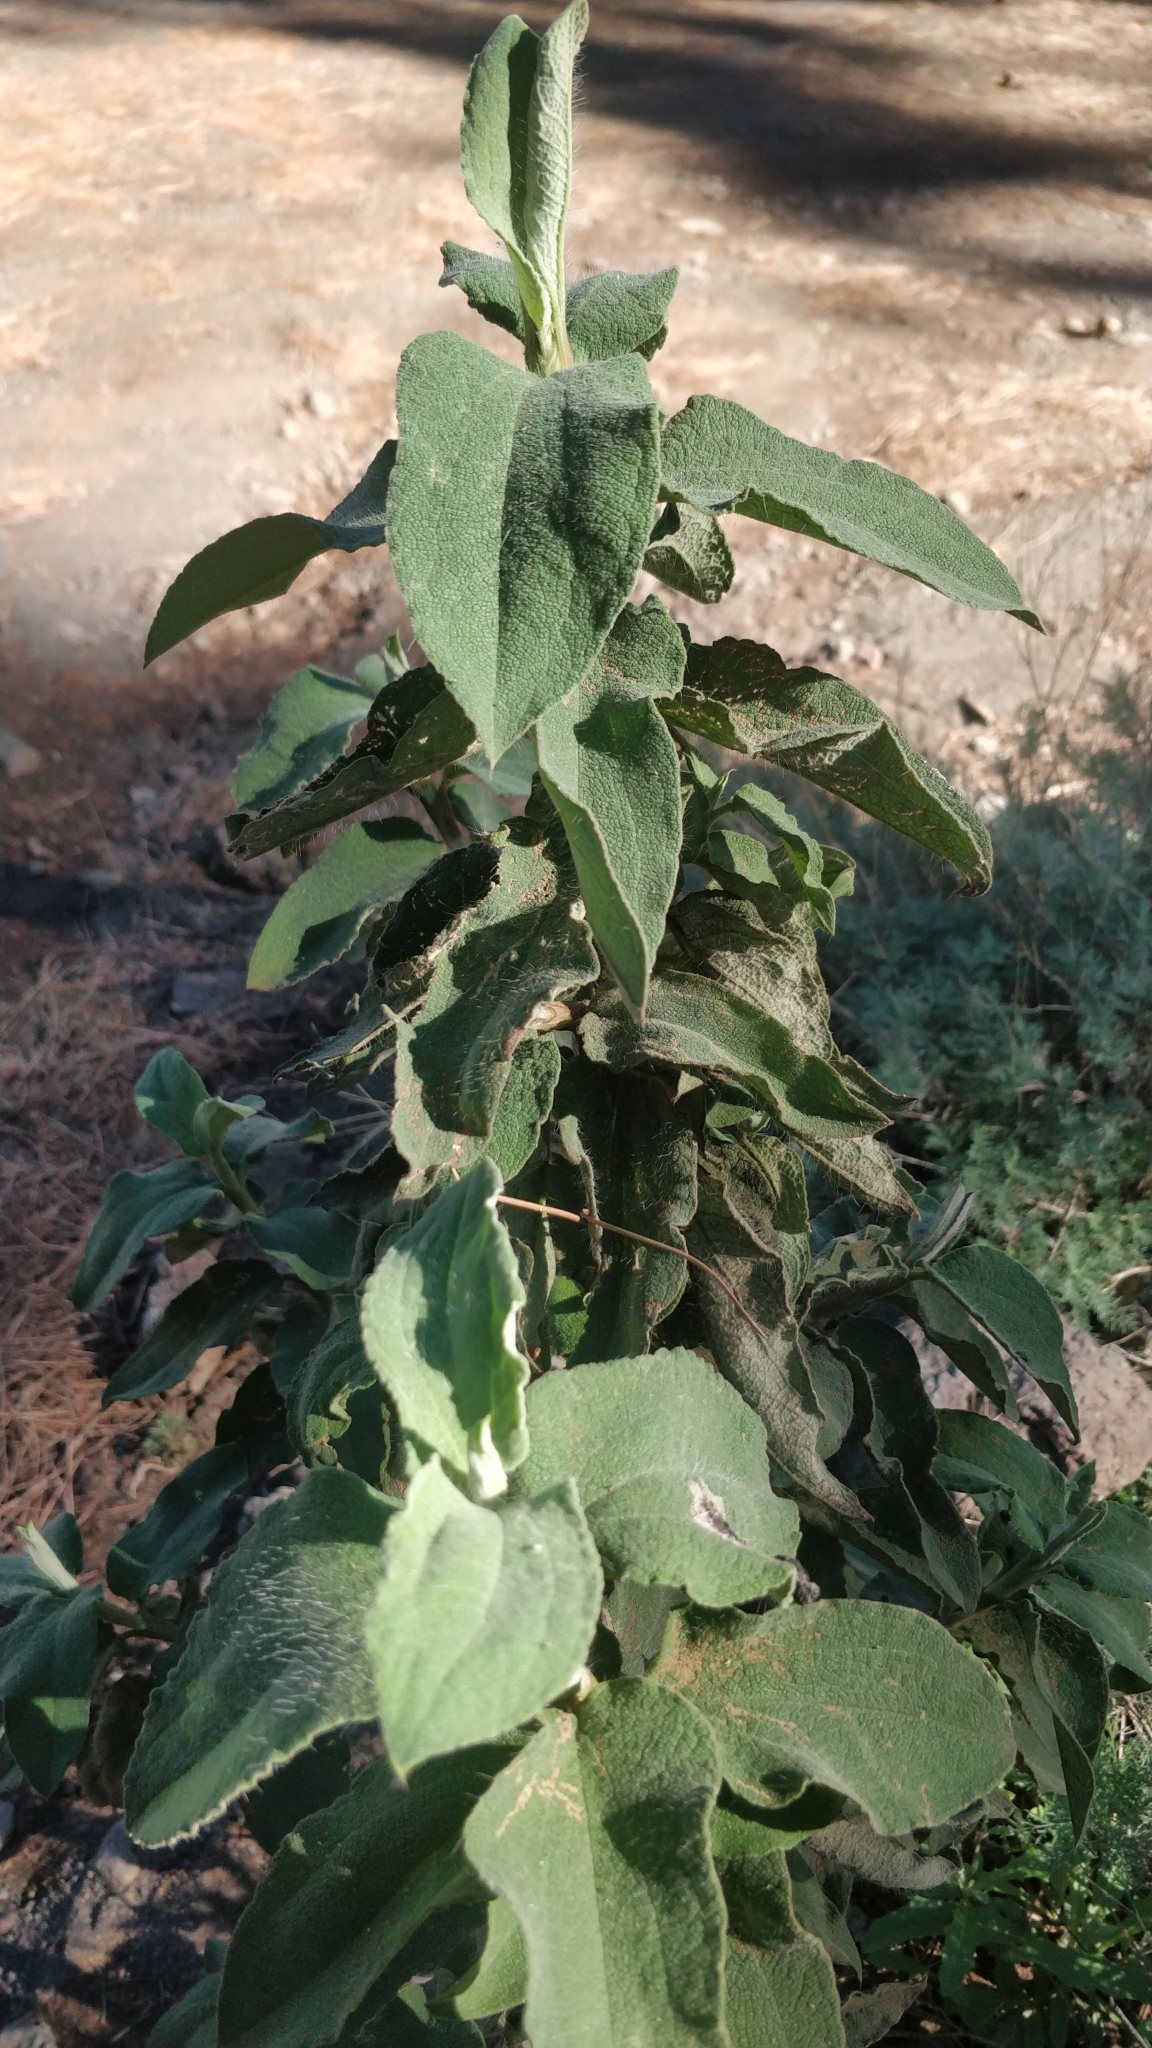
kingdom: Plantae
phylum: Tracheophyta
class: Magnoliopsida
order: Malvales
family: Cistaceae
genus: Cistus
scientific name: Cistus symphytifolius
